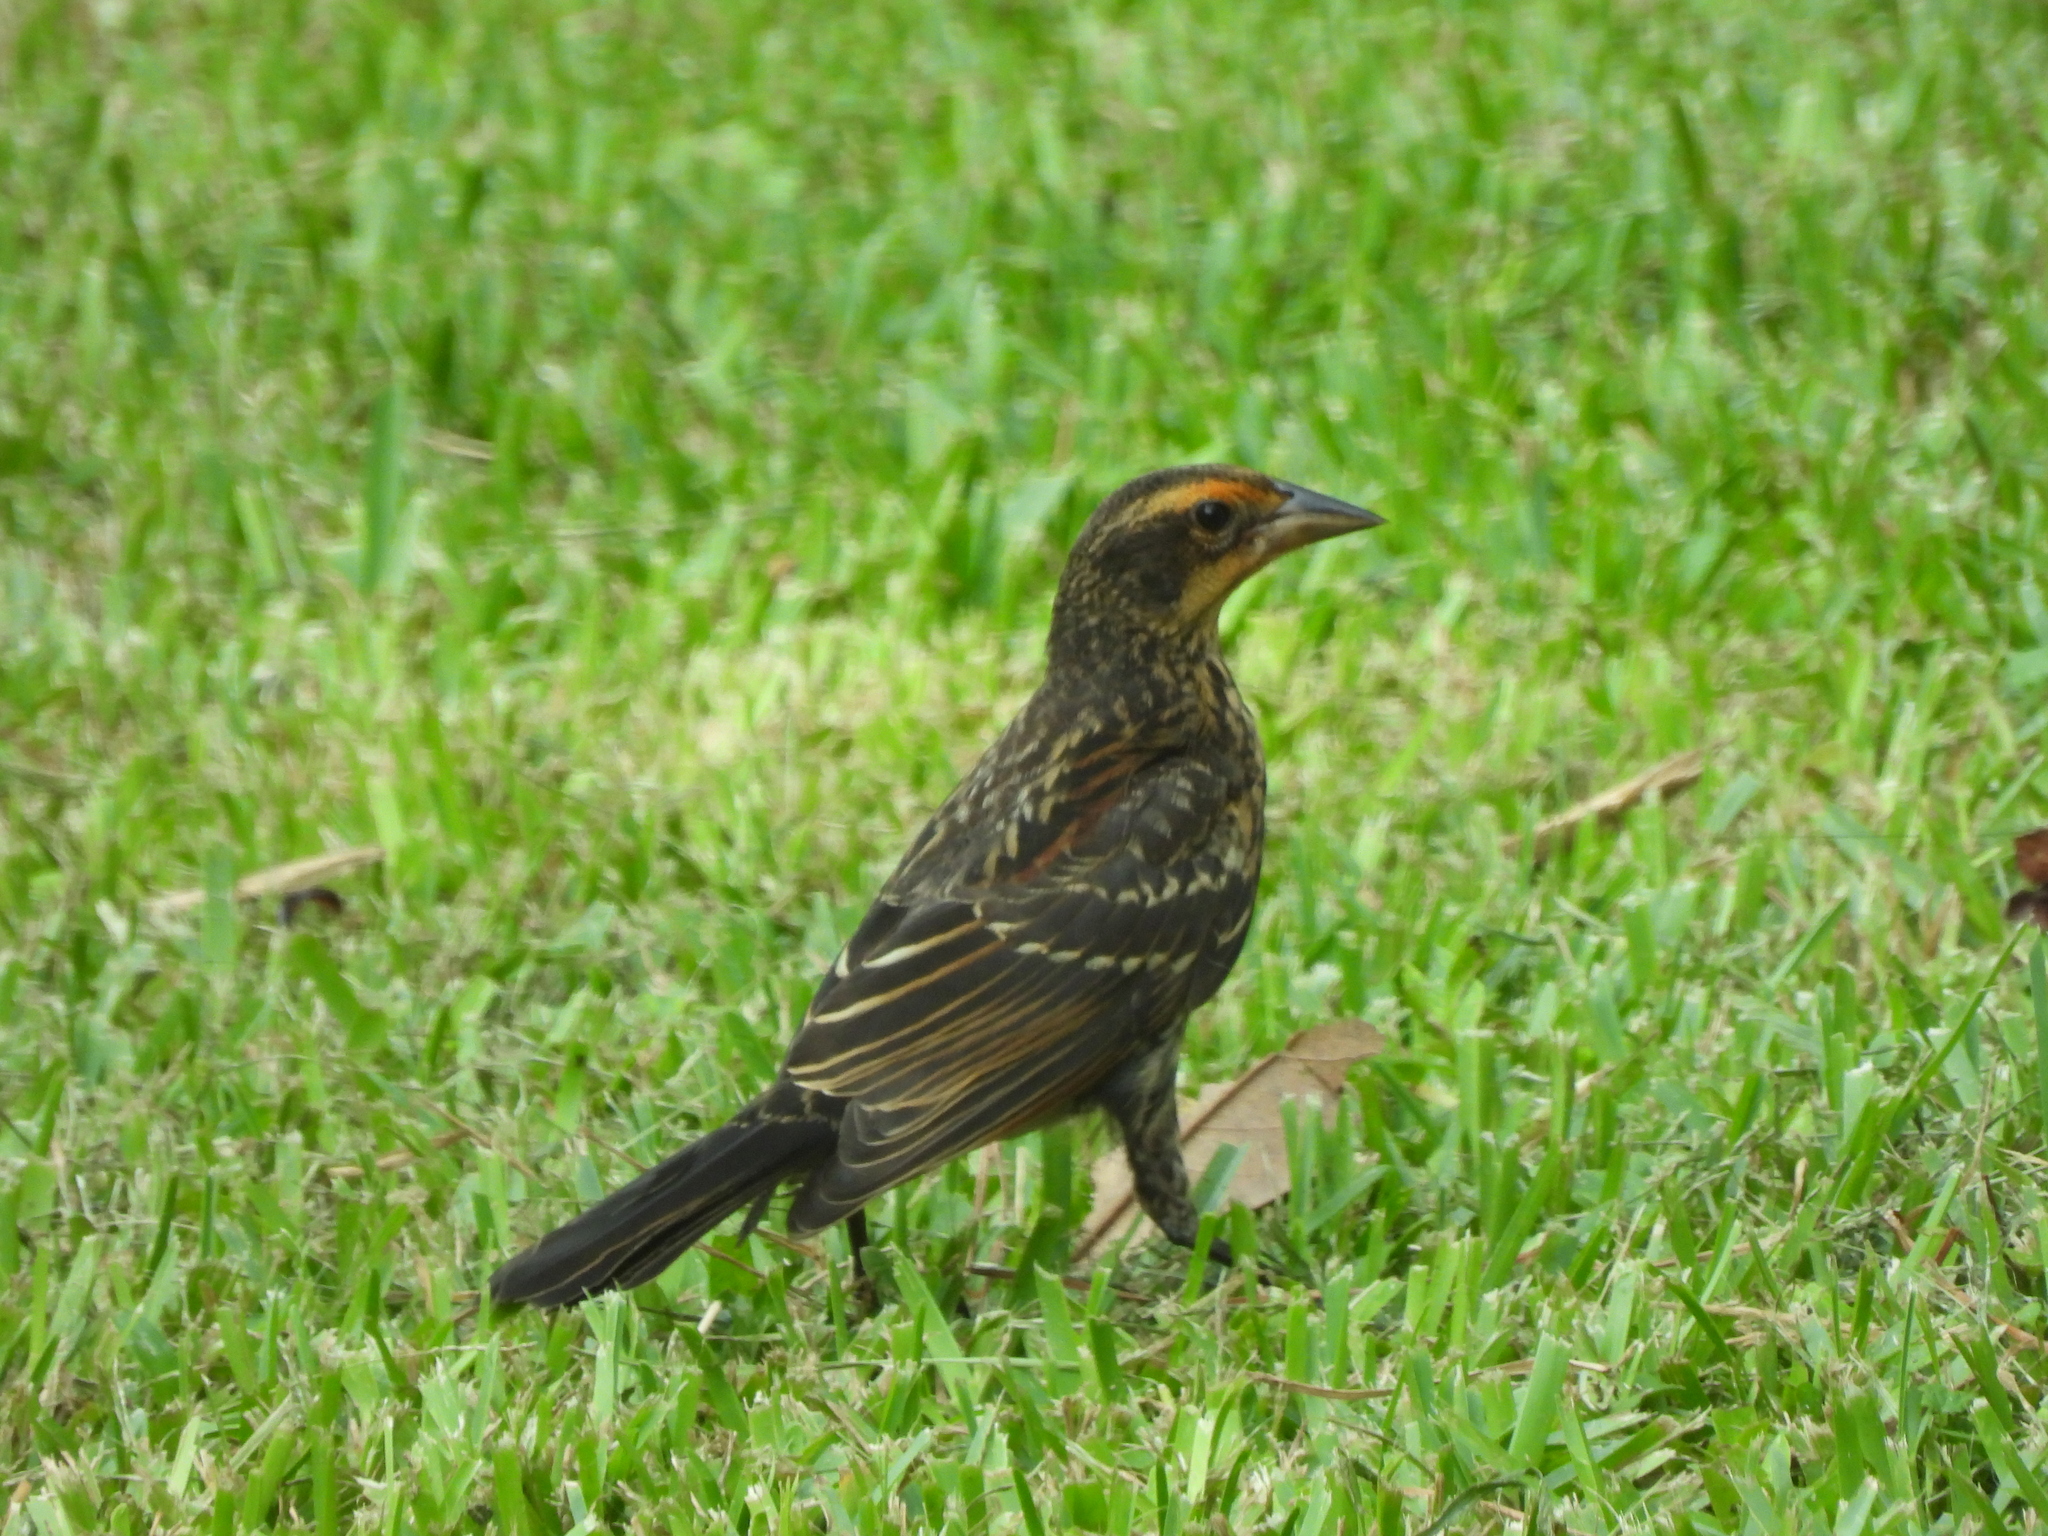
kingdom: Animalia
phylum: Chordata
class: Aves
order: Passeriformes
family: Icteridae
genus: Agelaius
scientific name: Agelaius phoeniceus
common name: Red-winged blackbird
